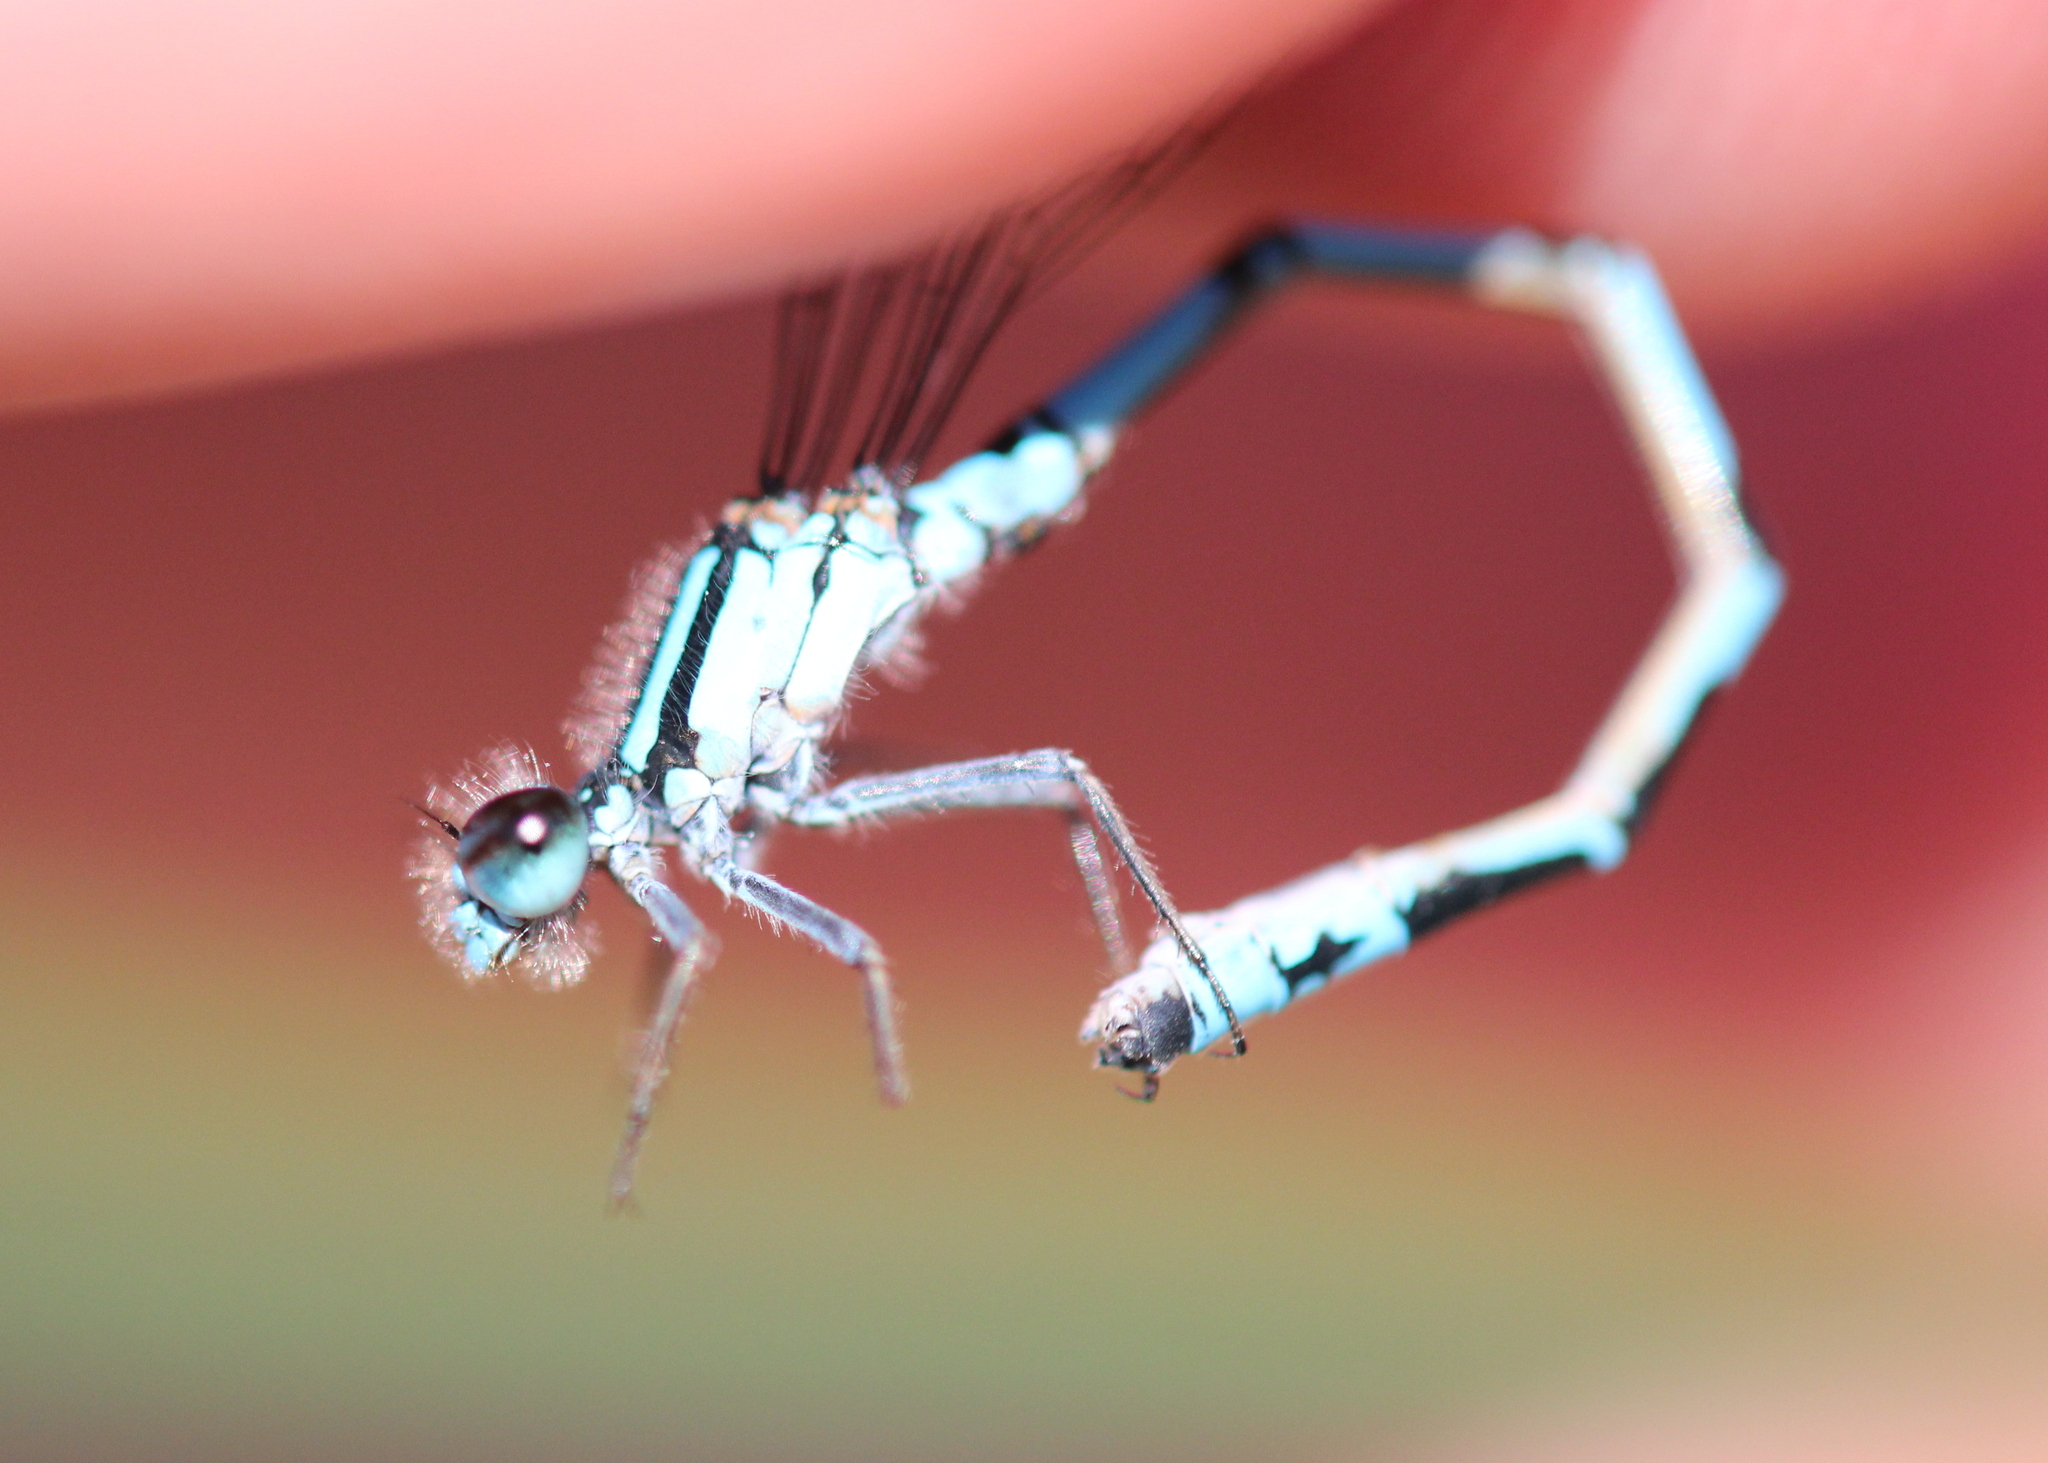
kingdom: Animalia
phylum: Arthropoda
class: Insecta
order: Odonata
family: Coenagrionidae
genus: Enallagma
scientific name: Enallagma laterale
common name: New england bluet
